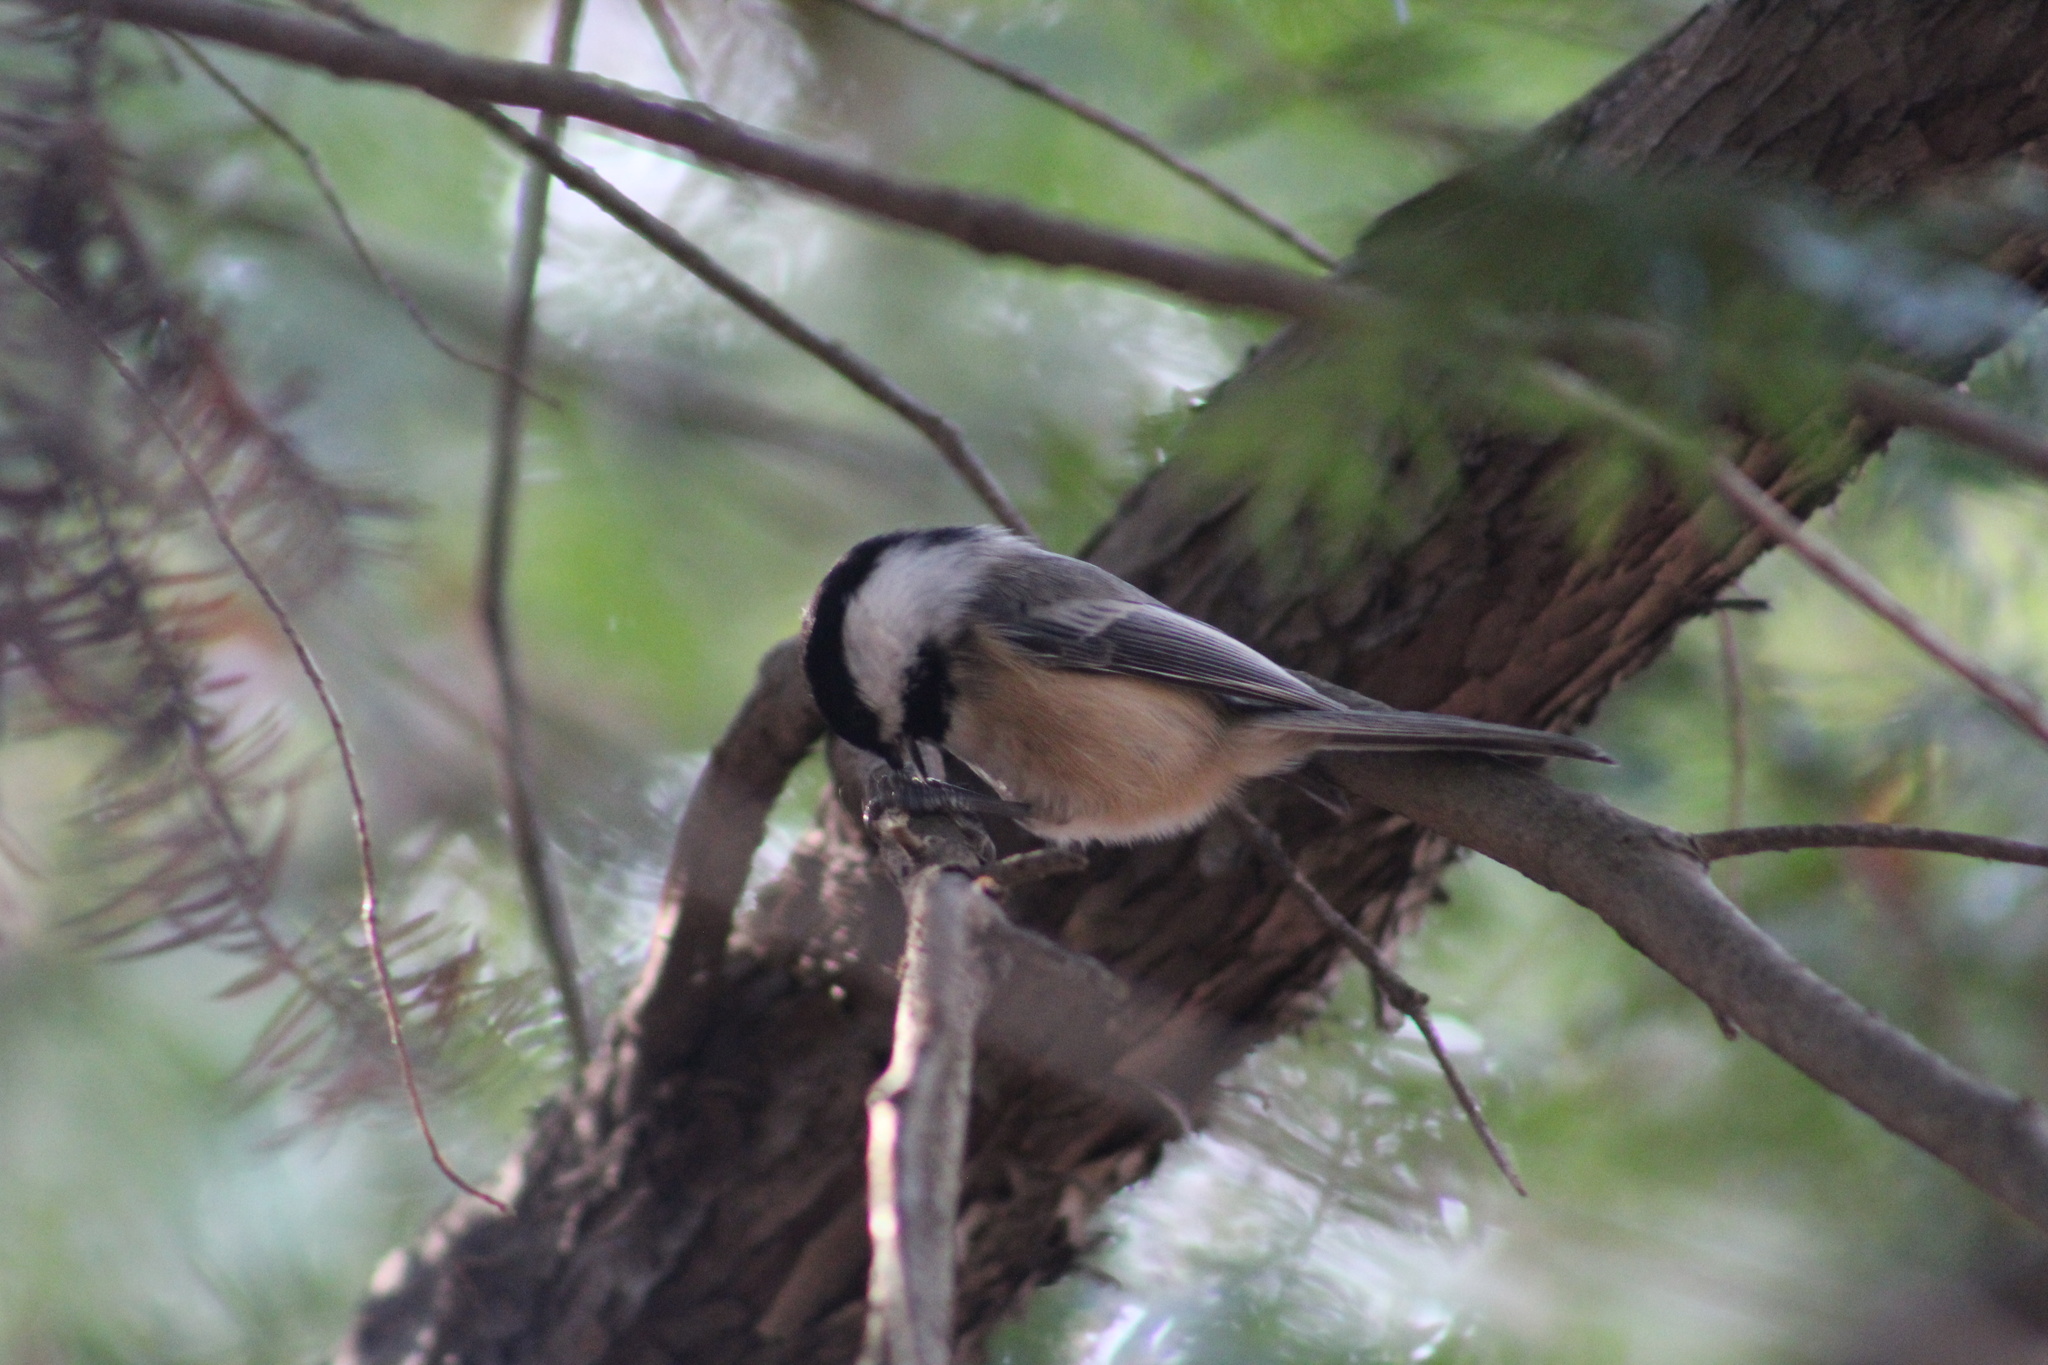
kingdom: Animalia
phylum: Chordata
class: Aves
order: Passeriformes
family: Paridae
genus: Poecile
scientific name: Poecile atricapillus
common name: Black-capped chickadee
